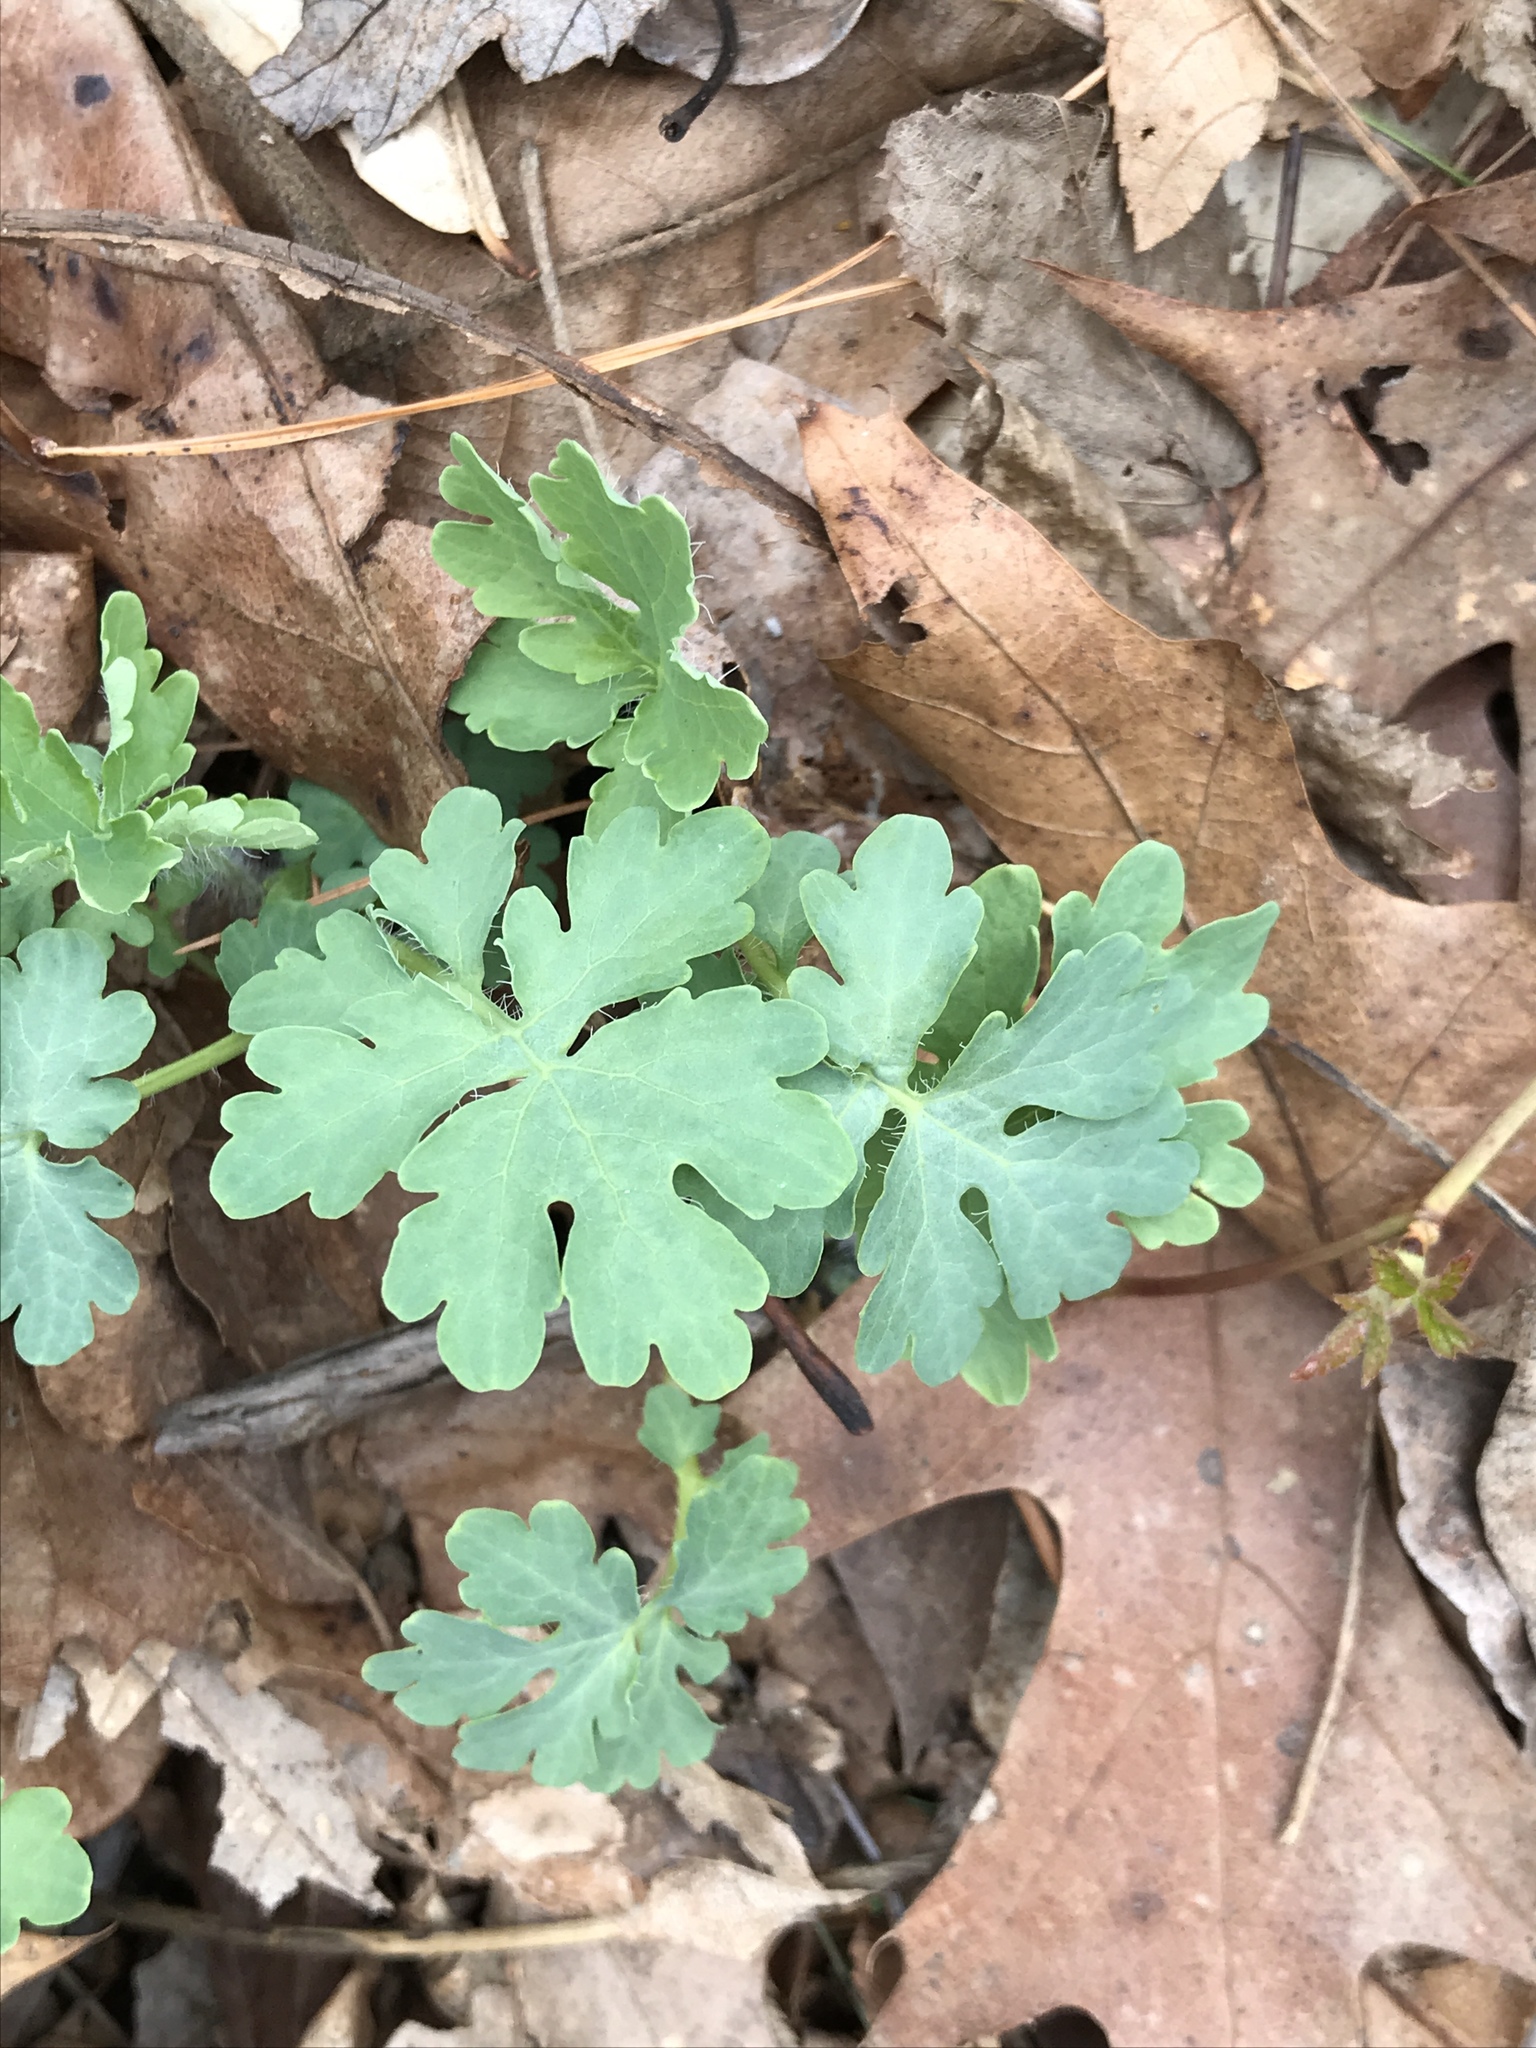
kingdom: Plantae
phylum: Tracheophyta
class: Magnoliopsida
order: Ranunculales
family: Papaveraceae
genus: Stylophorum
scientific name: Stylophorum diphyllum
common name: Celandine poppy
